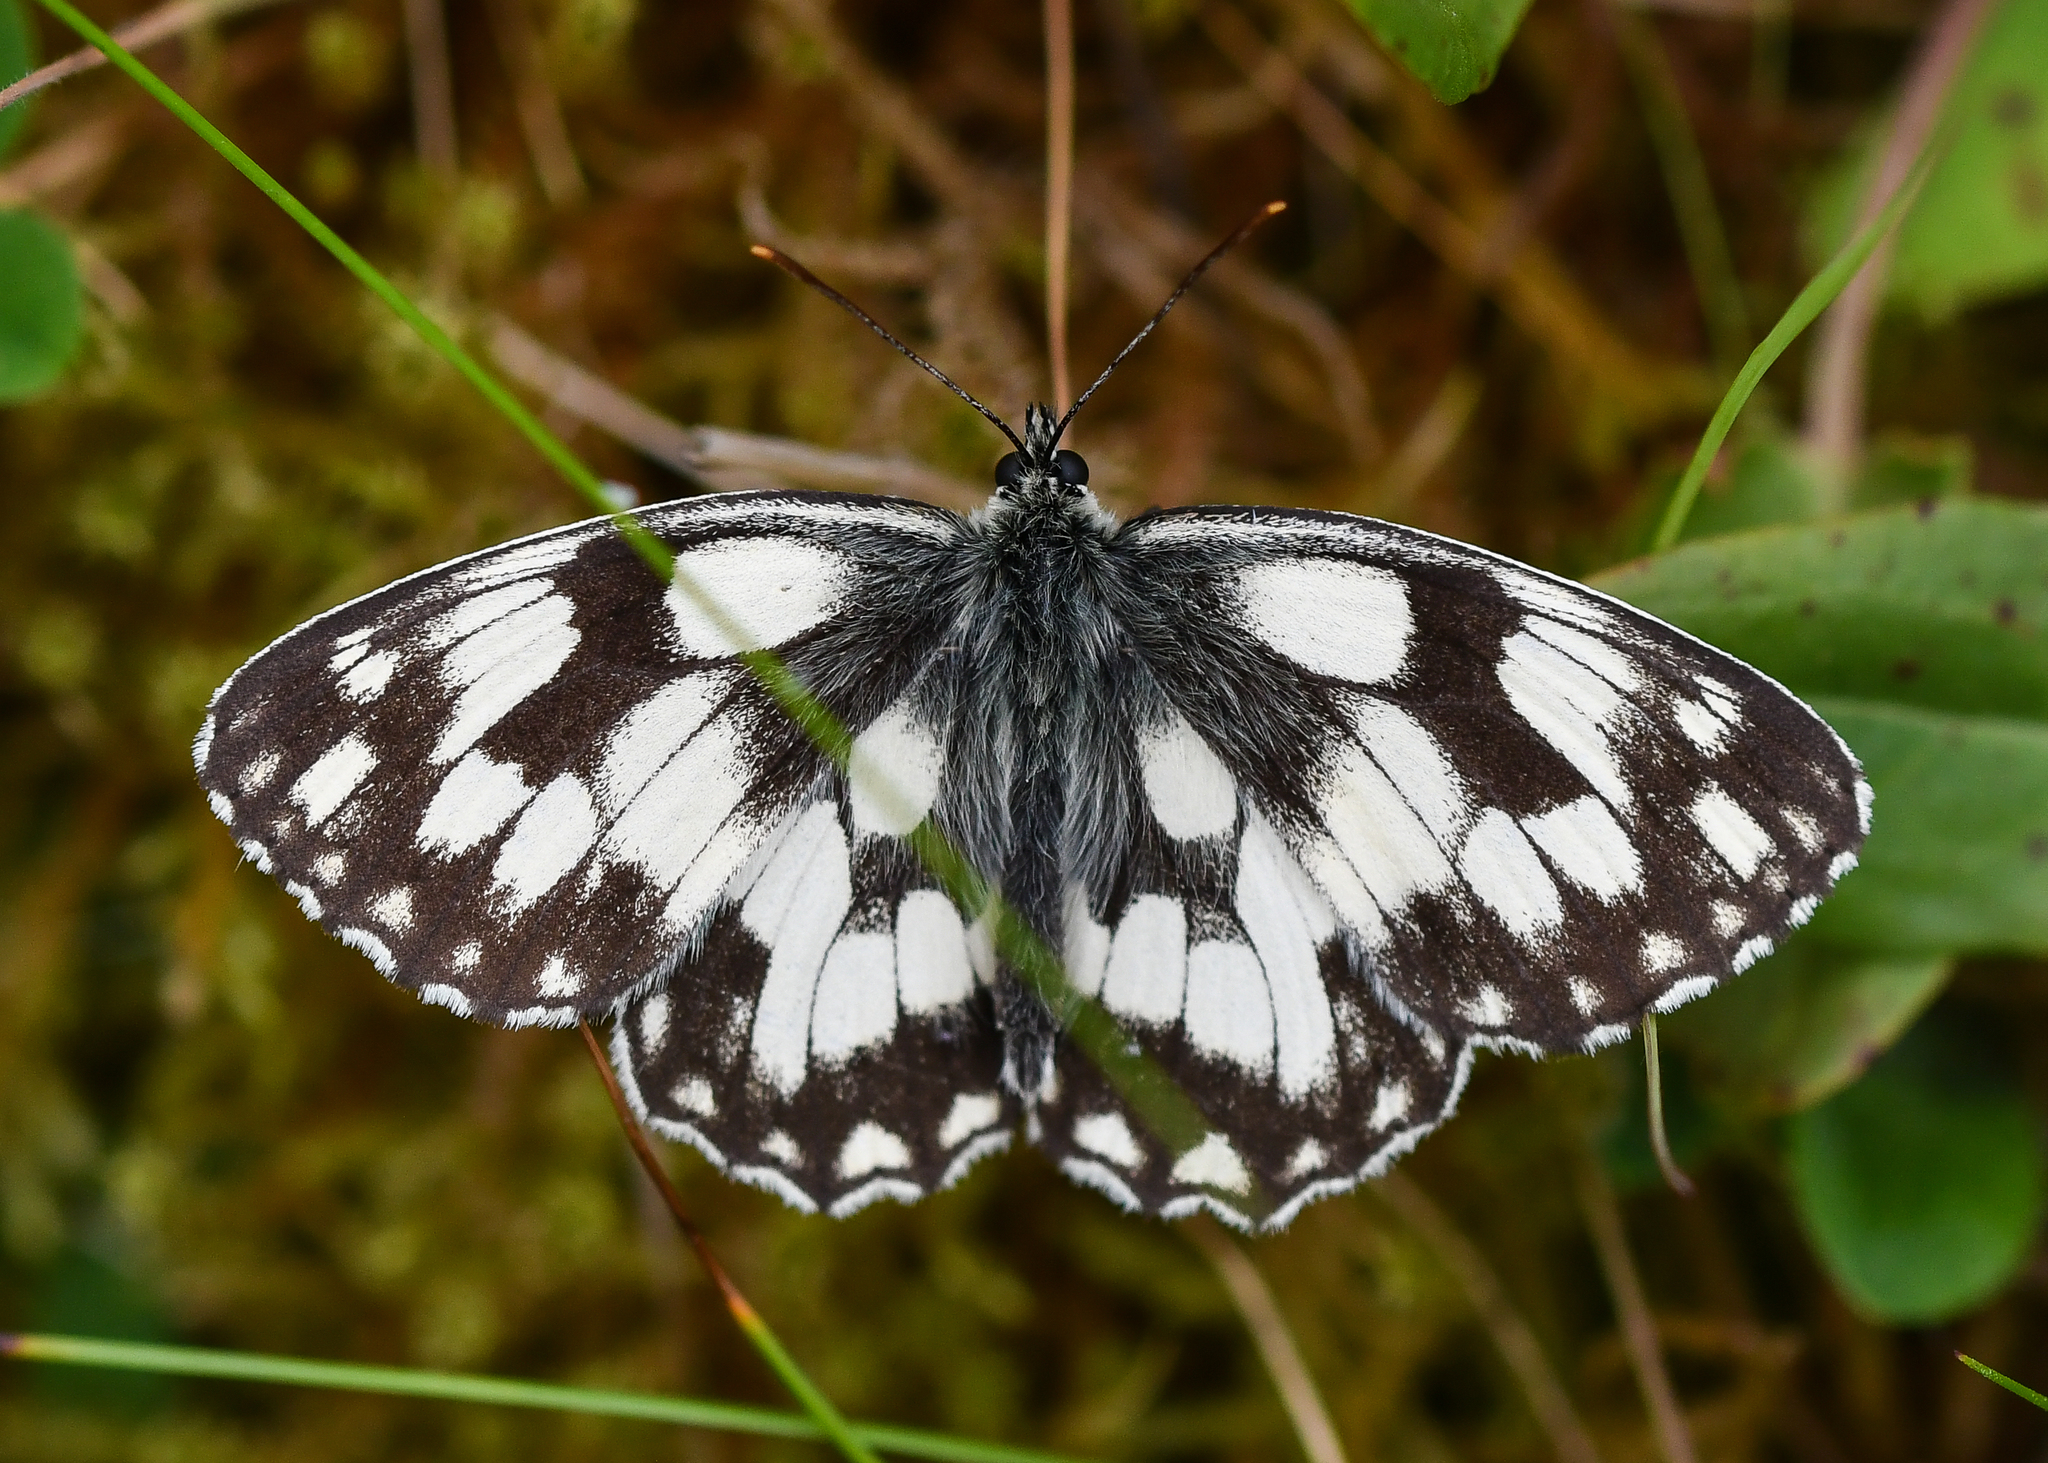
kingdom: Animalia
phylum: Arthropoda
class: Insecta
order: Lepidoptera
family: Nymphalidae
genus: Melanargia
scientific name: Melanargia galathea
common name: Marbled white
